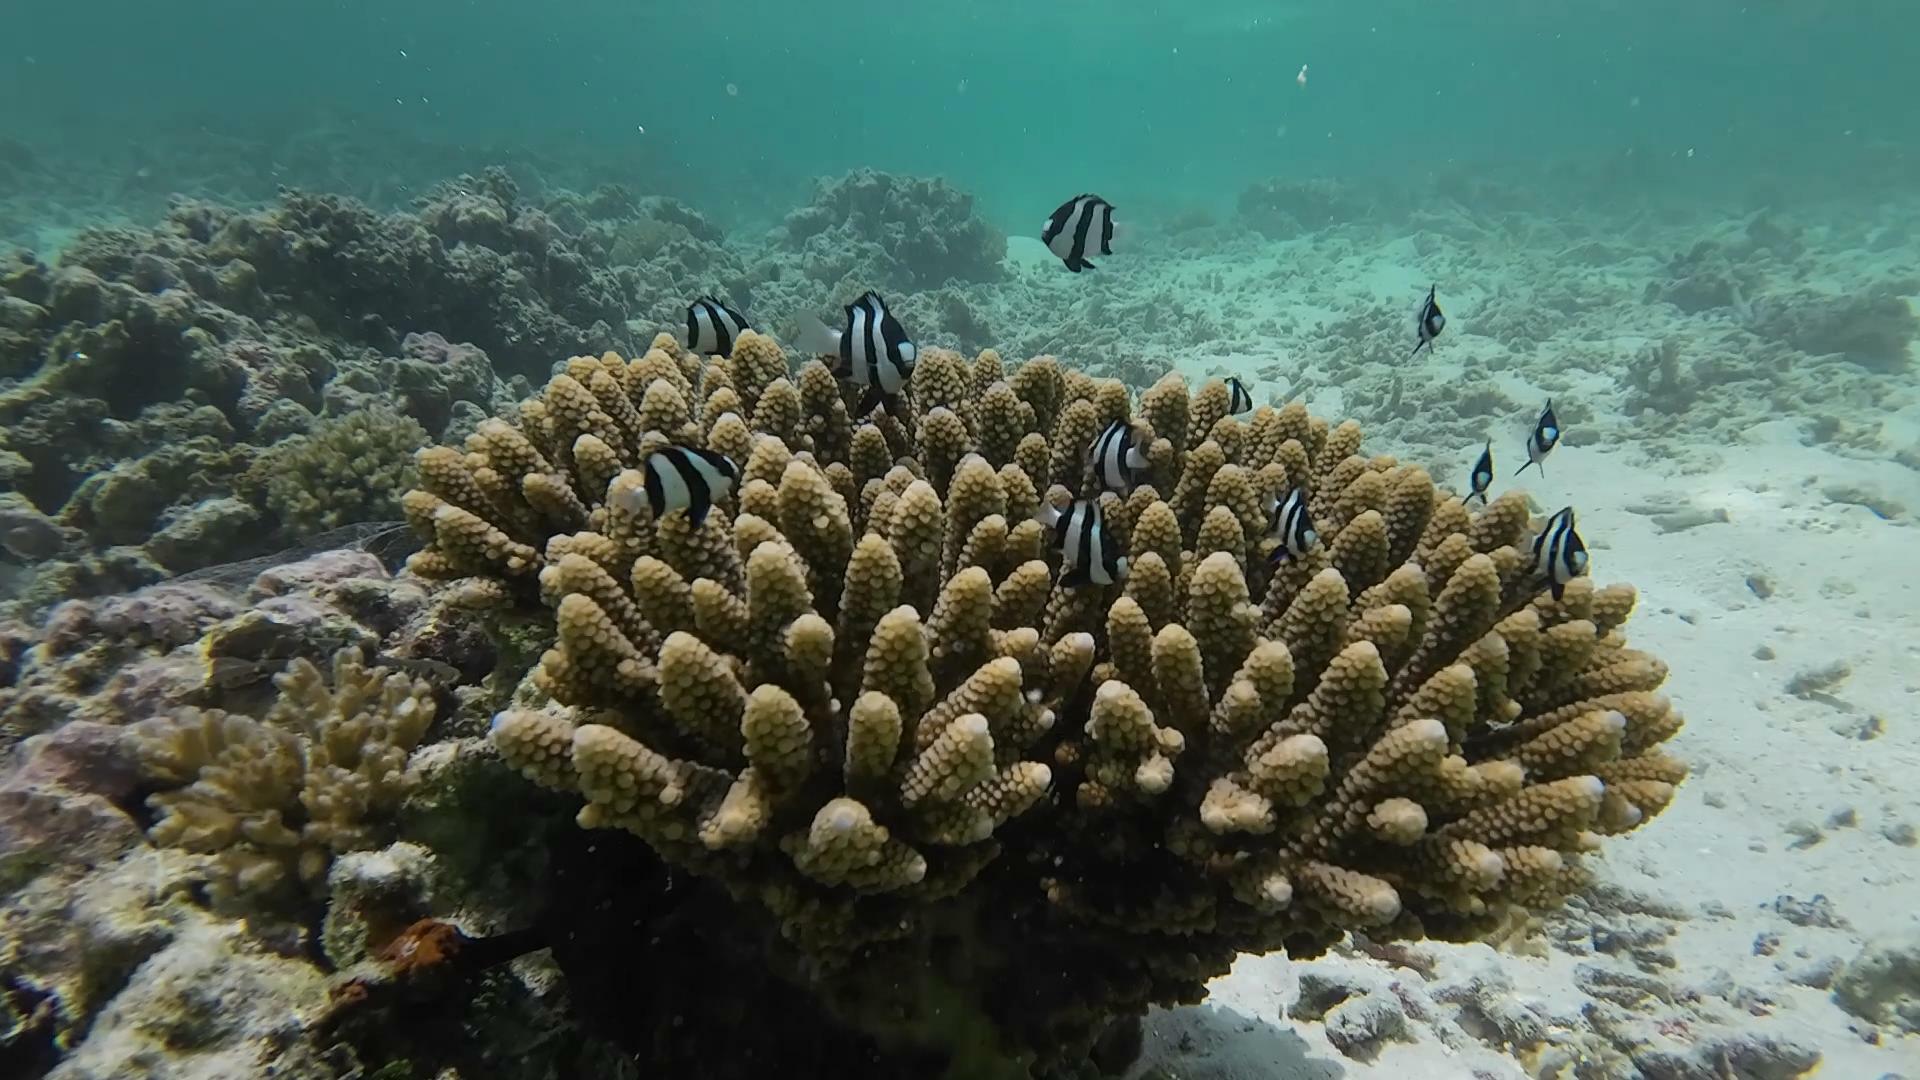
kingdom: Animalia
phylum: Chordata
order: Perciformes
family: Pomacentridae
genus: Dascyllus
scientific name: Dascyllus abudafur
